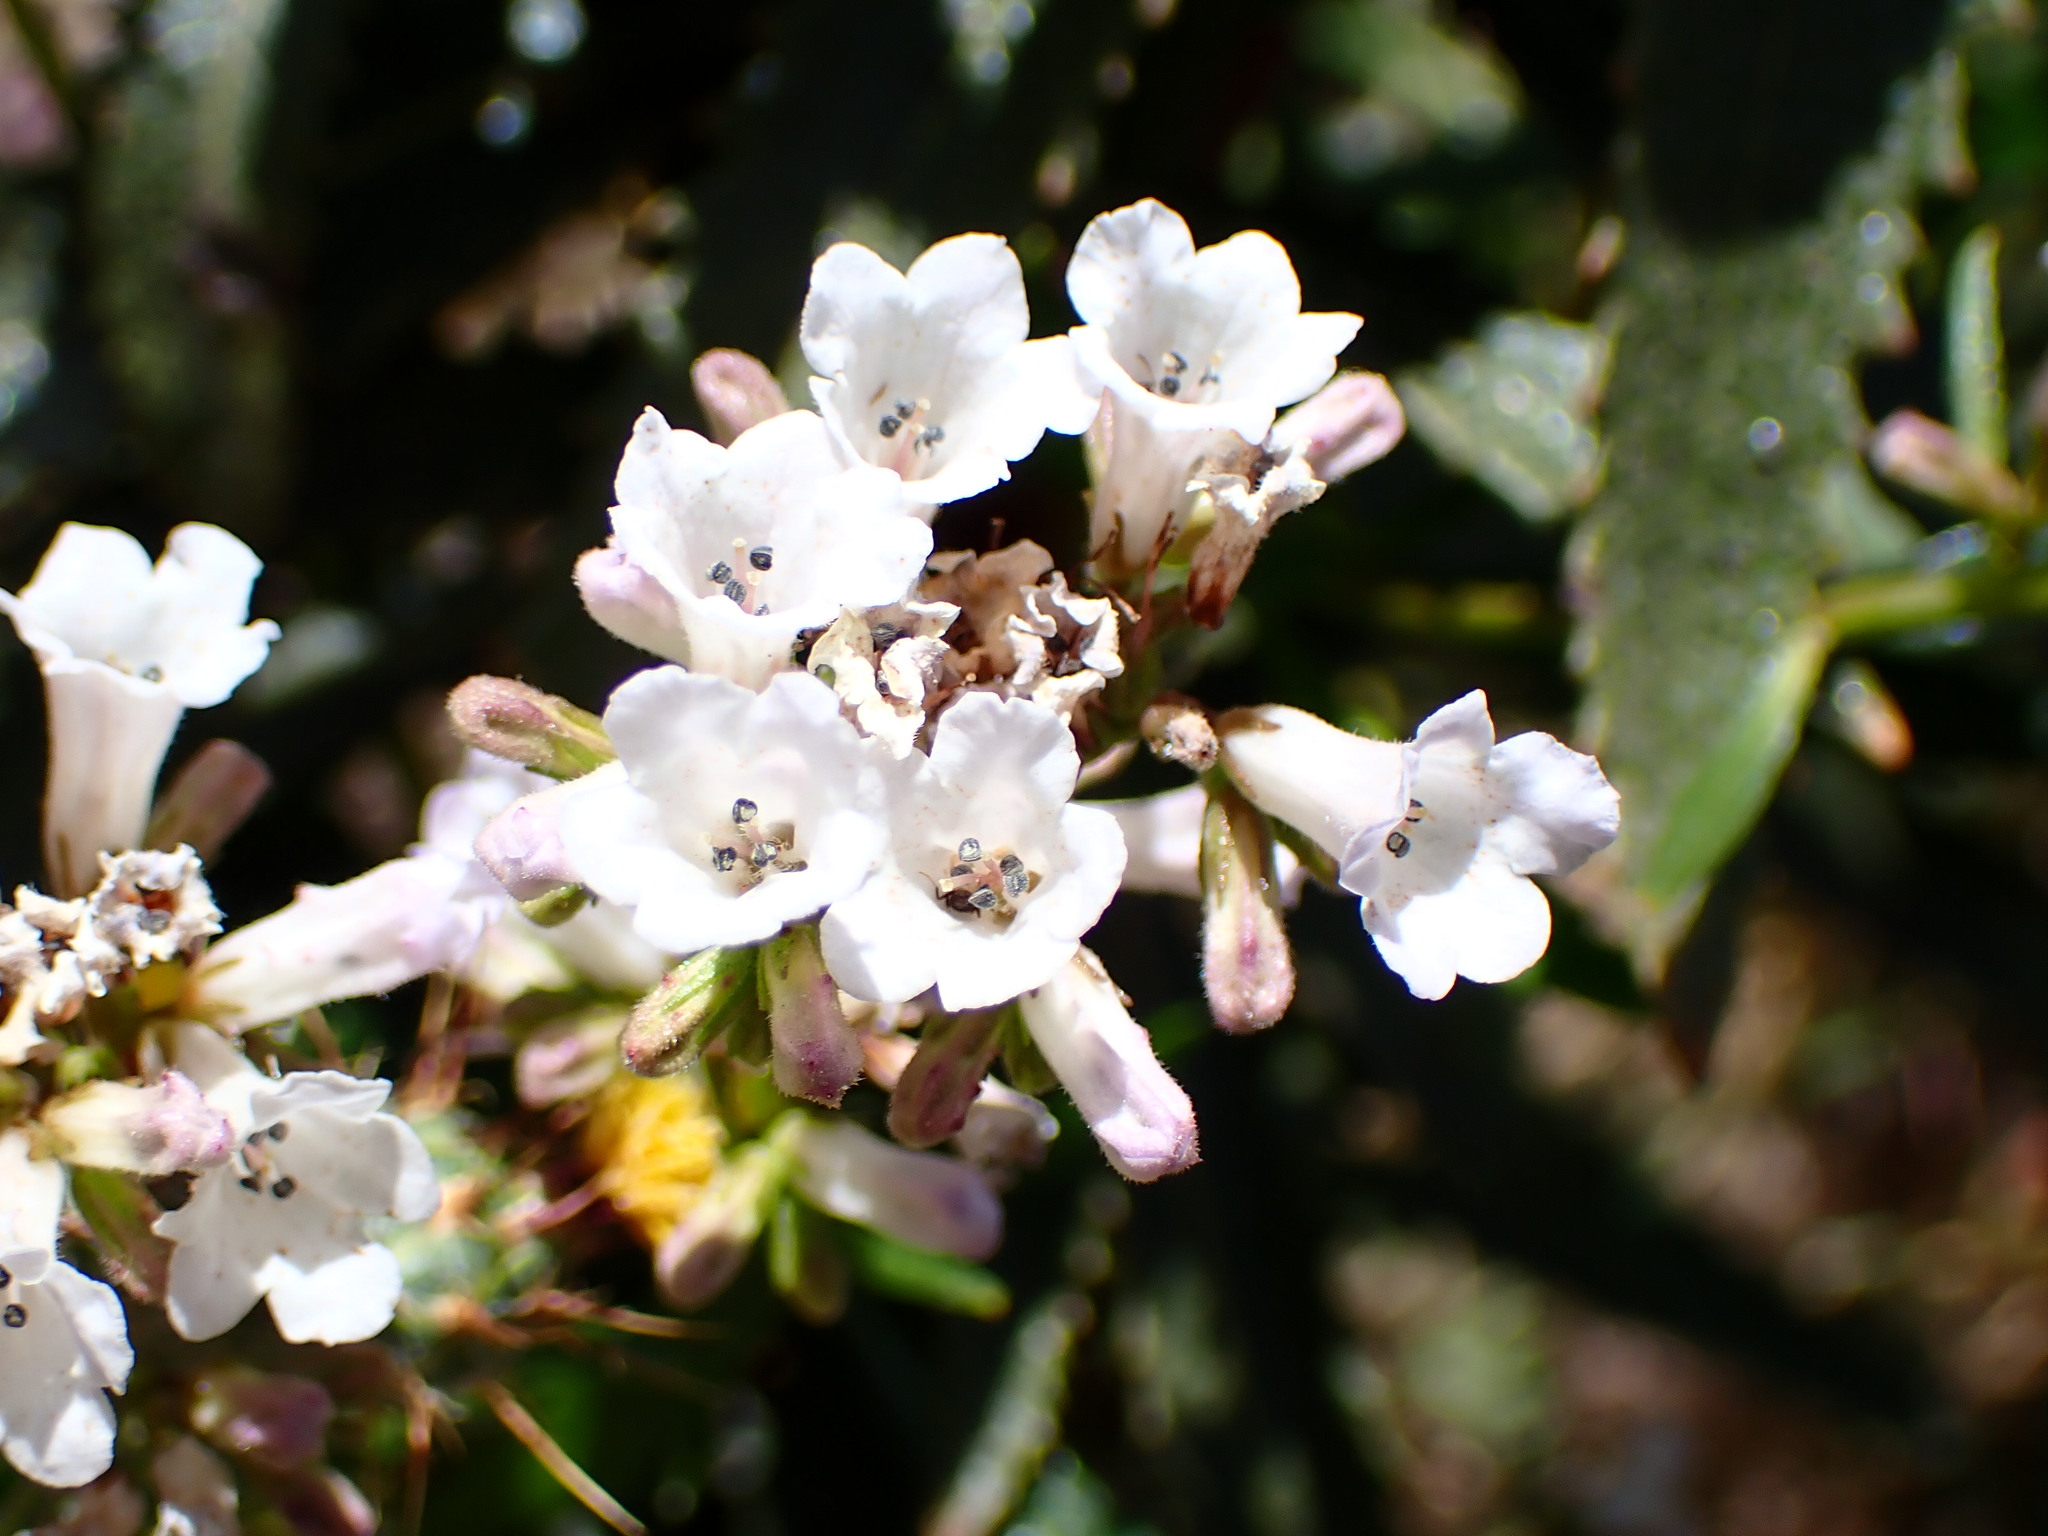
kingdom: Plantae
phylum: Tracheophyta
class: Magnoliopsida
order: Boraginales
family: Namaceae
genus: Eriodictyon
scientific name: Eriodictyon californicum
